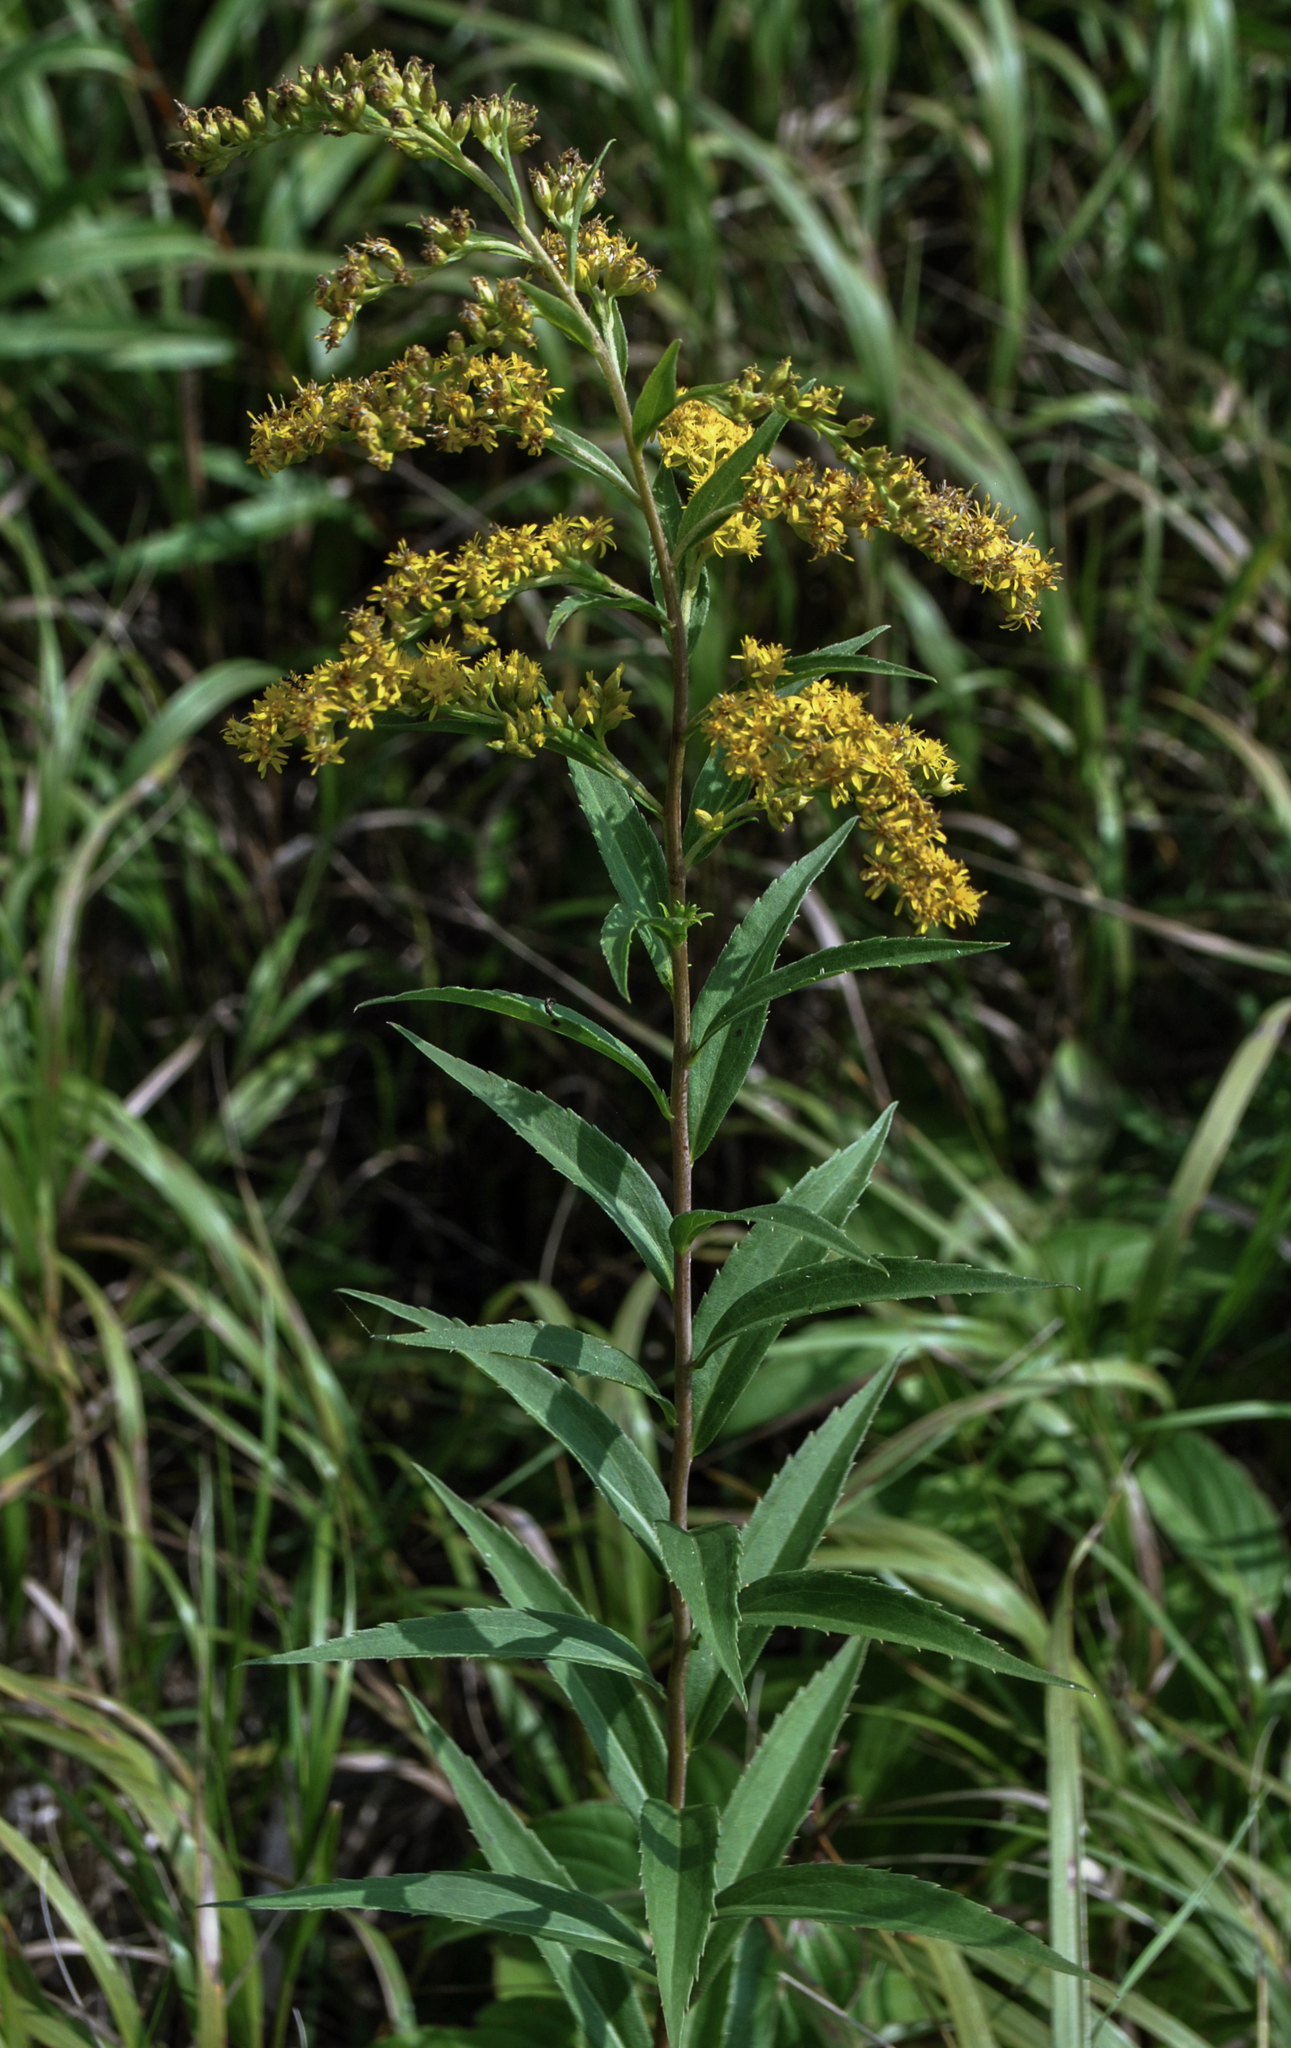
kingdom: Plantae
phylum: Tracheophyta
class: Magnoliopsida
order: Asterales
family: Asteraceae
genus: Solidago
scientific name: Solidago gigantea
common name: Giant goldenrod
